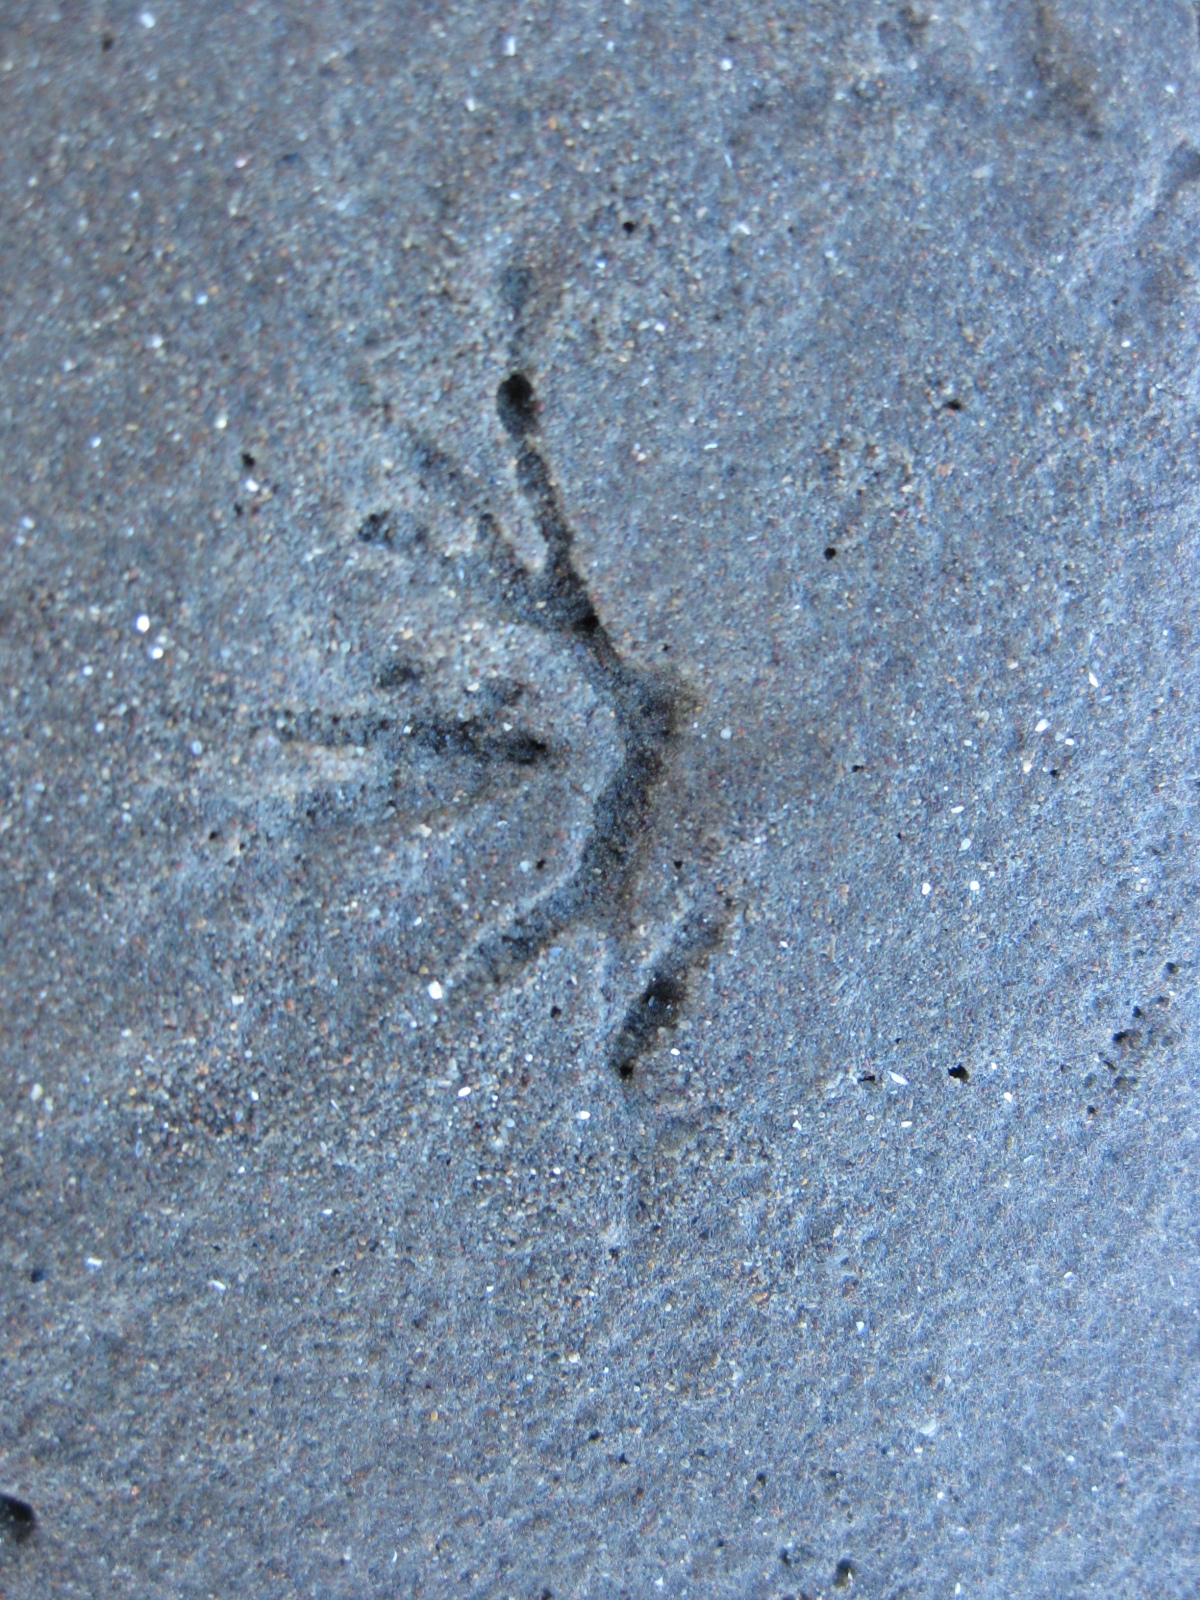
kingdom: Animalia
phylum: Mollusca
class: Bivalvia
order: Cardiida
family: Tellinidae
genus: Macomona
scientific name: Macomona liliana
